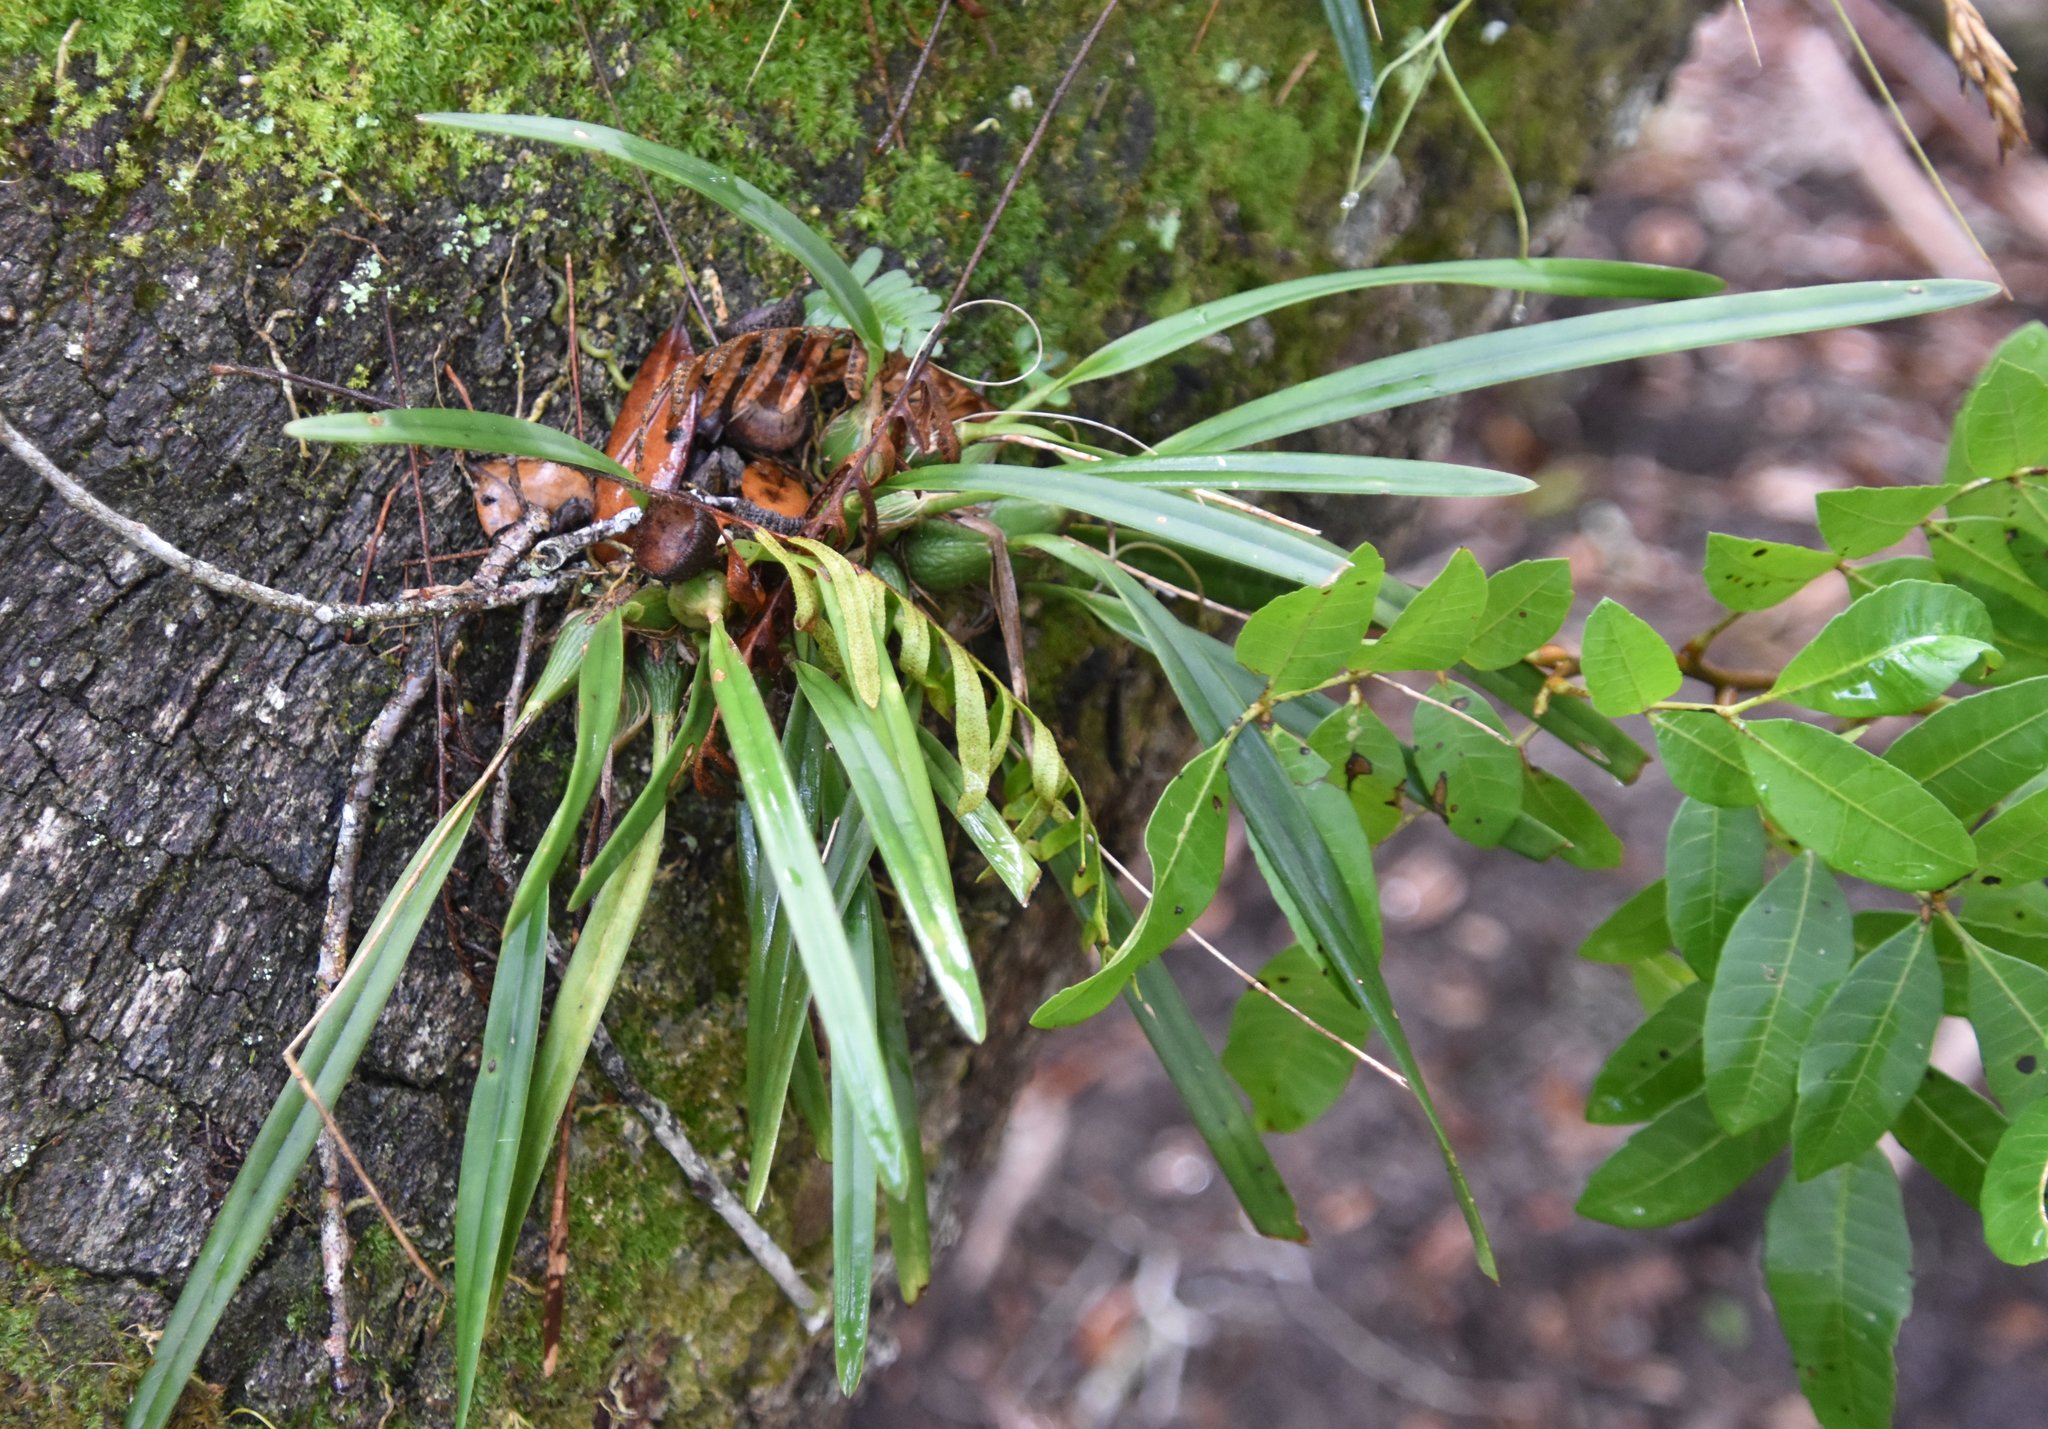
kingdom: Plantae
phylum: Tracheophyta
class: Liliopsida
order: Asparagales
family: Orchidaceae
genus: Encyclia
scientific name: Encyclia tampensis
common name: Florida butterfly orchid
